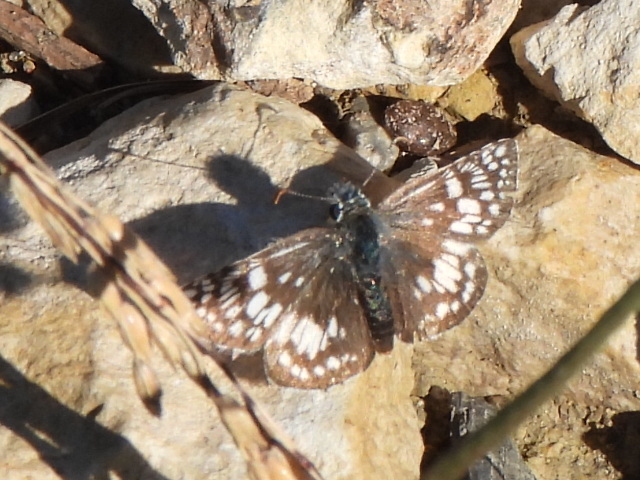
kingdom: Animalia
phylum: Arthropoda
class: Insecta
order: Lepidoptera
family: Hesperiidae
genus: Burnsius
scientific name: Burnsius
